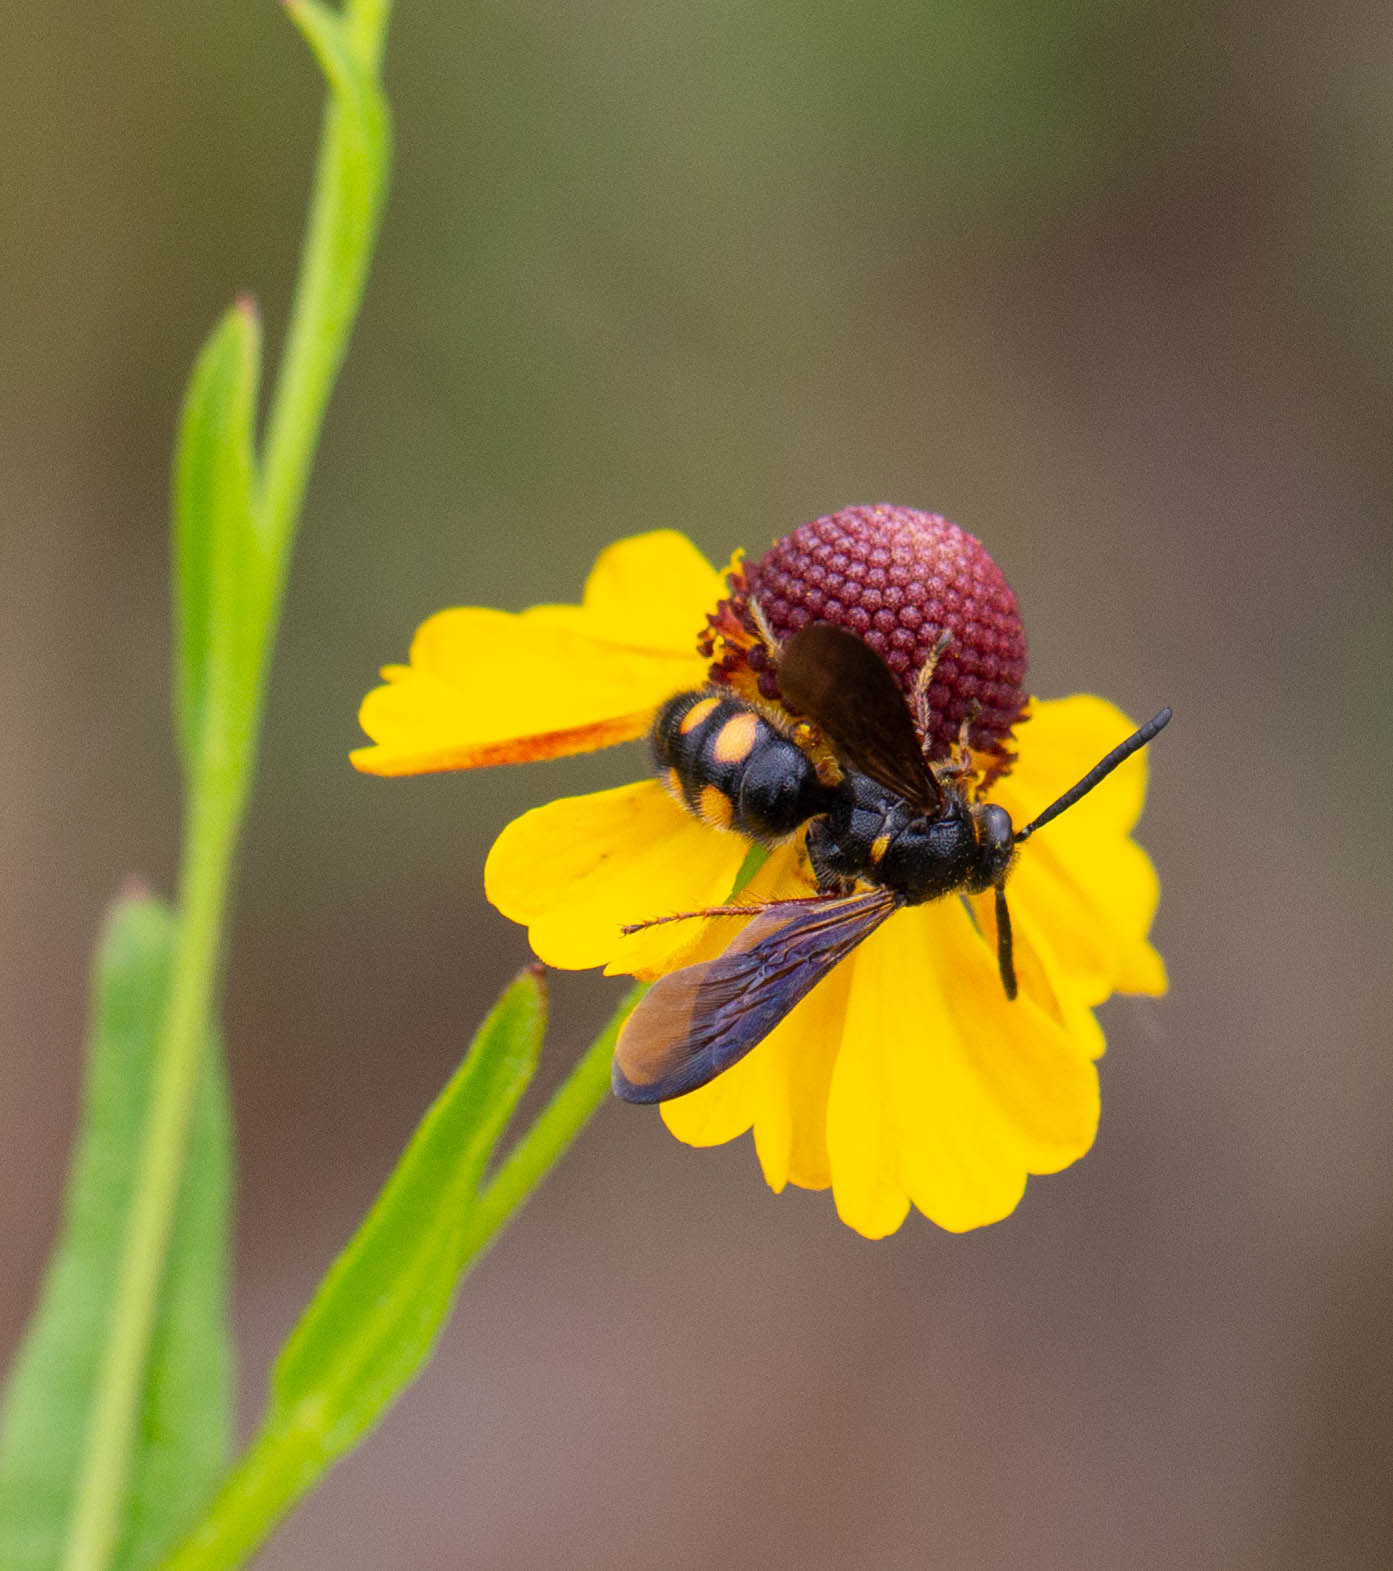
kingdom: Animalia
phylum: Arthropoda
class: Insecta
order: Hymenoptera
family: Scoliidae
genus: Scolia
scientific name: Scolia nobilitata
